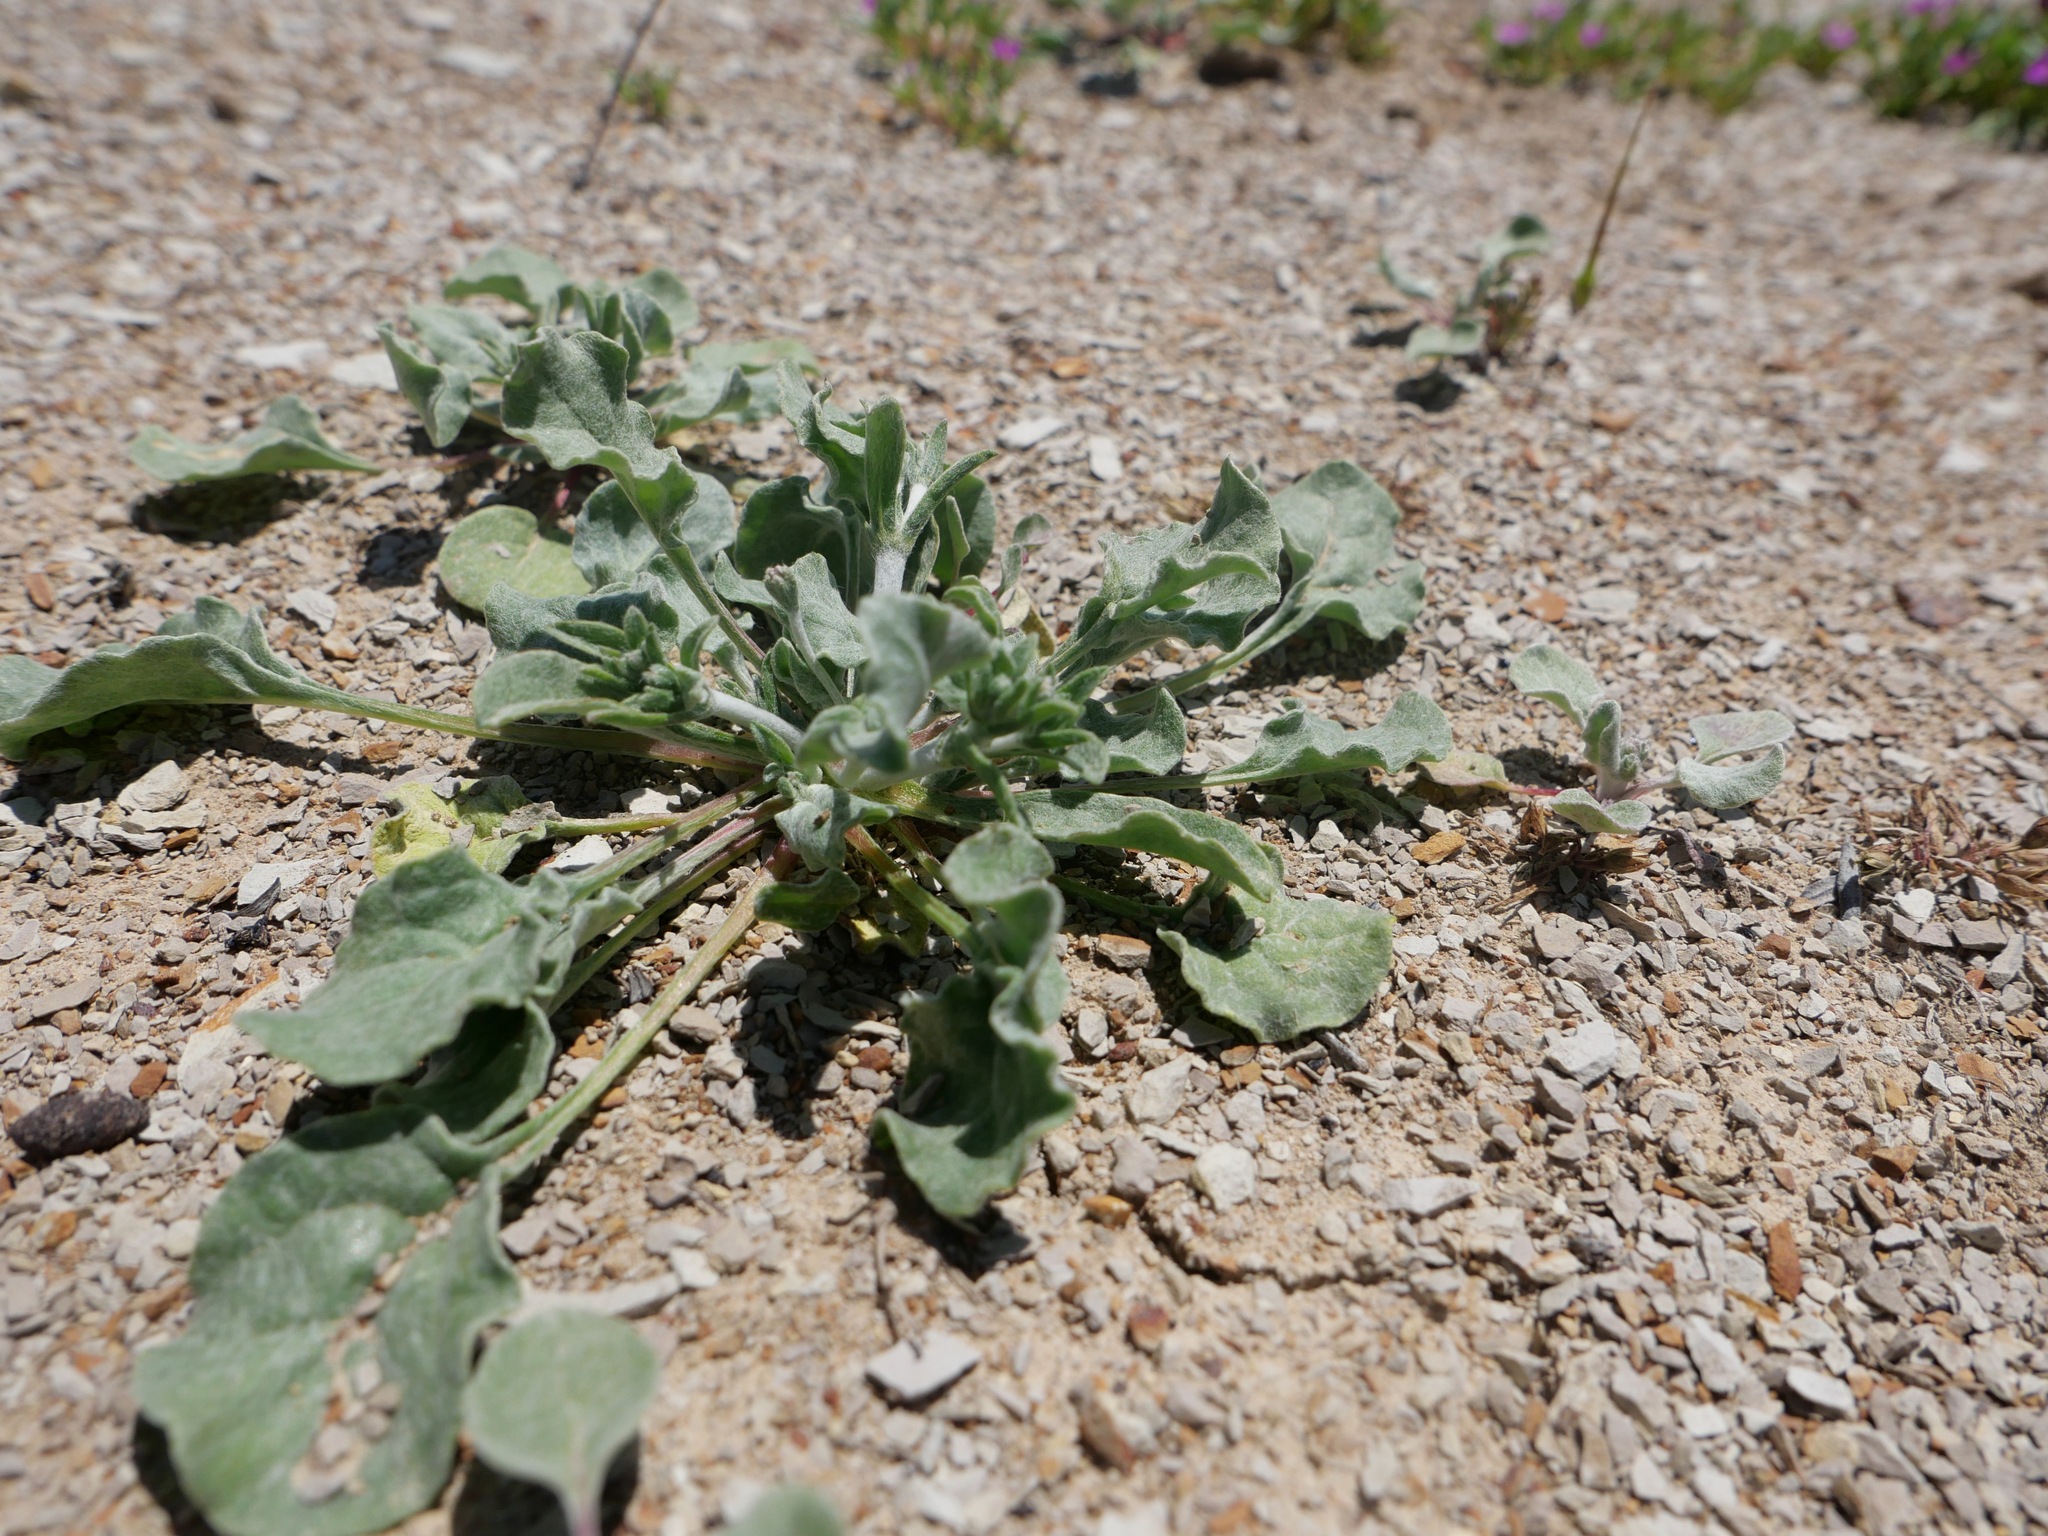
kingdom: Plantae
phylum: Tracheophyta
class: Magnoliopsida
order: Caryophyllales
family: Polygonaceae
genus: Eriogonum
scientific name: Eriogonum temblorense
